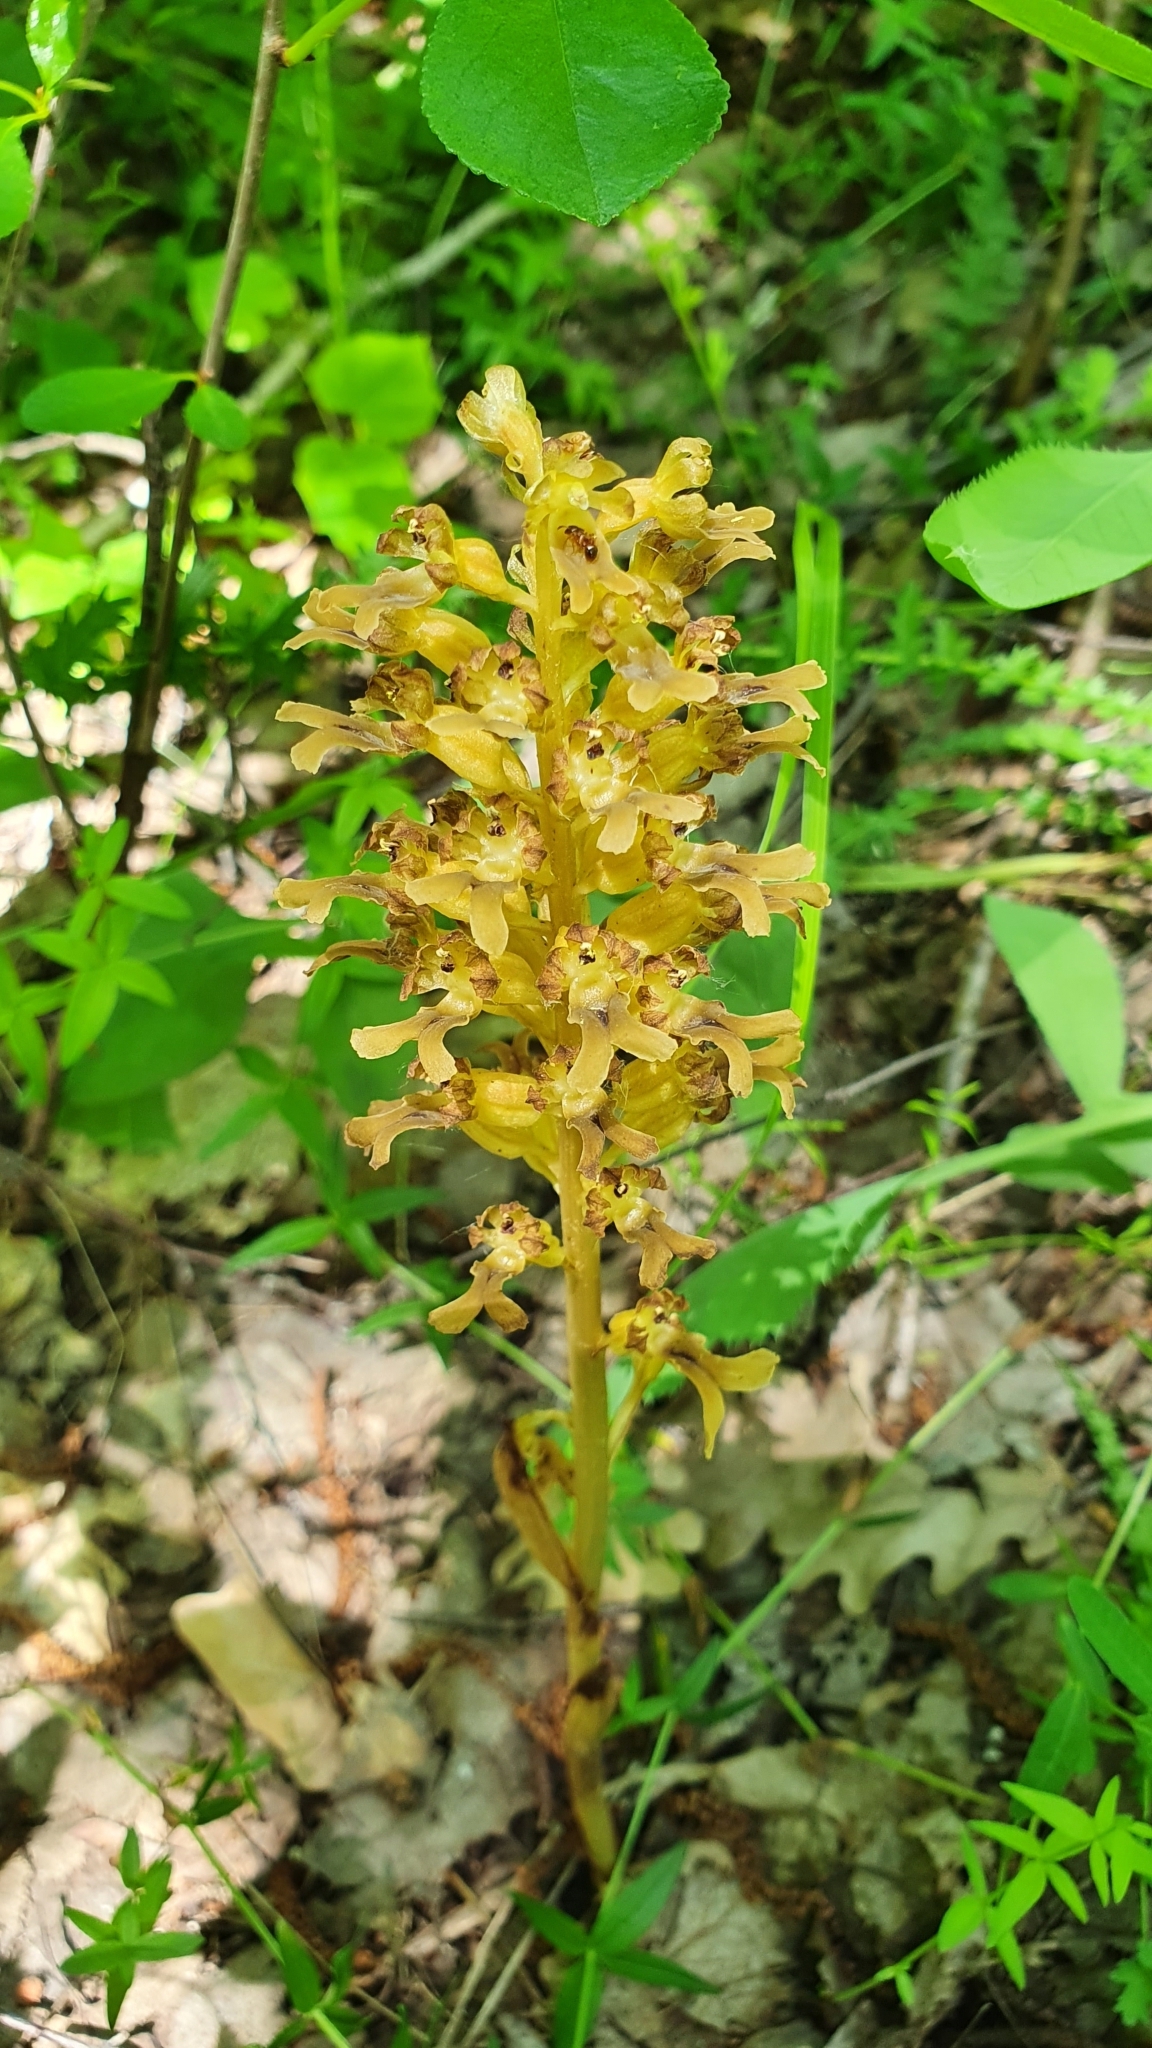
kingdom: Plantae
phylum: Tracheophyta
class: Liliopsida
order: Asparagales
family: Orchidaceae
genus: Neottia
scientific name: Neottia nidus-avis
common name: Bird's-nest orchid
